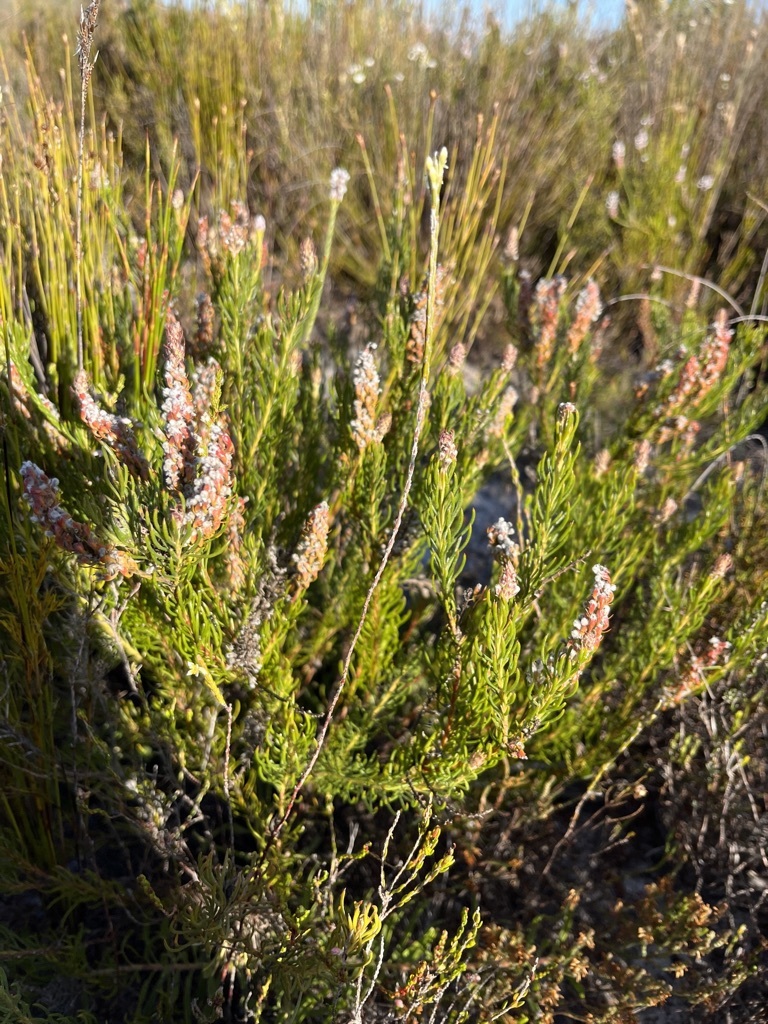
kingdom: Plantae
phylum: Tracheophyta
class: Magnoliopsida
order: Proteales
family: Proteaceae
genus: Spatalla
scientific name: Spatalla curvifolia
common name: White-stalked spoon
